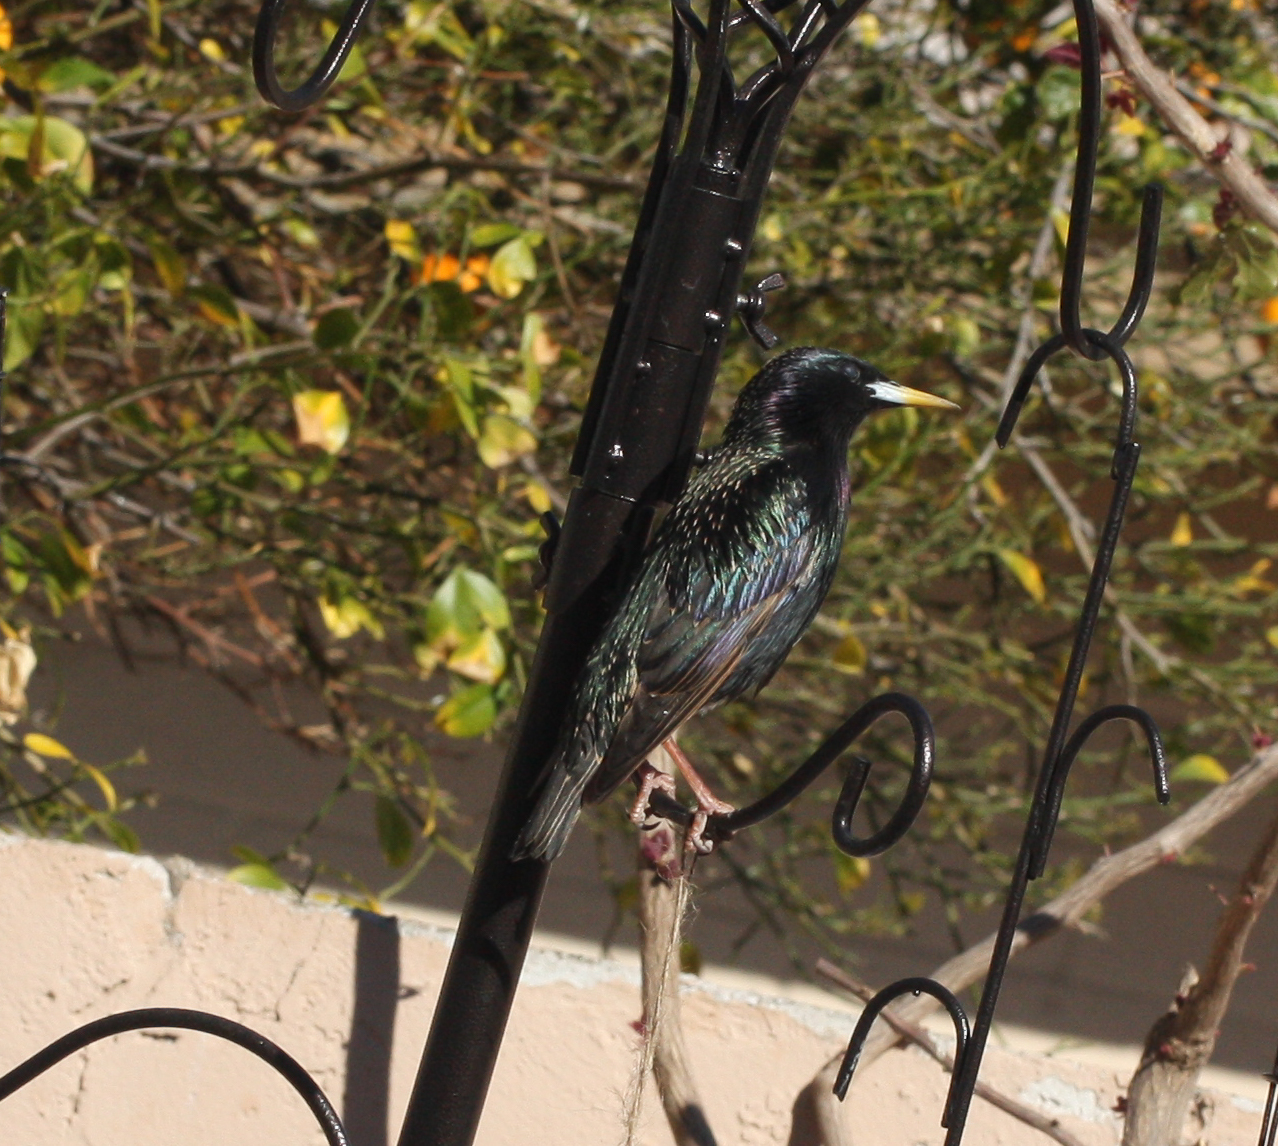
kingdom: Animalia
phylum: Chordata
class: Aves
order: Passeriformes
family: Sturnidae
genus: Sturnus
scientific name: Sturnus vulgaris
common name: Common starling
